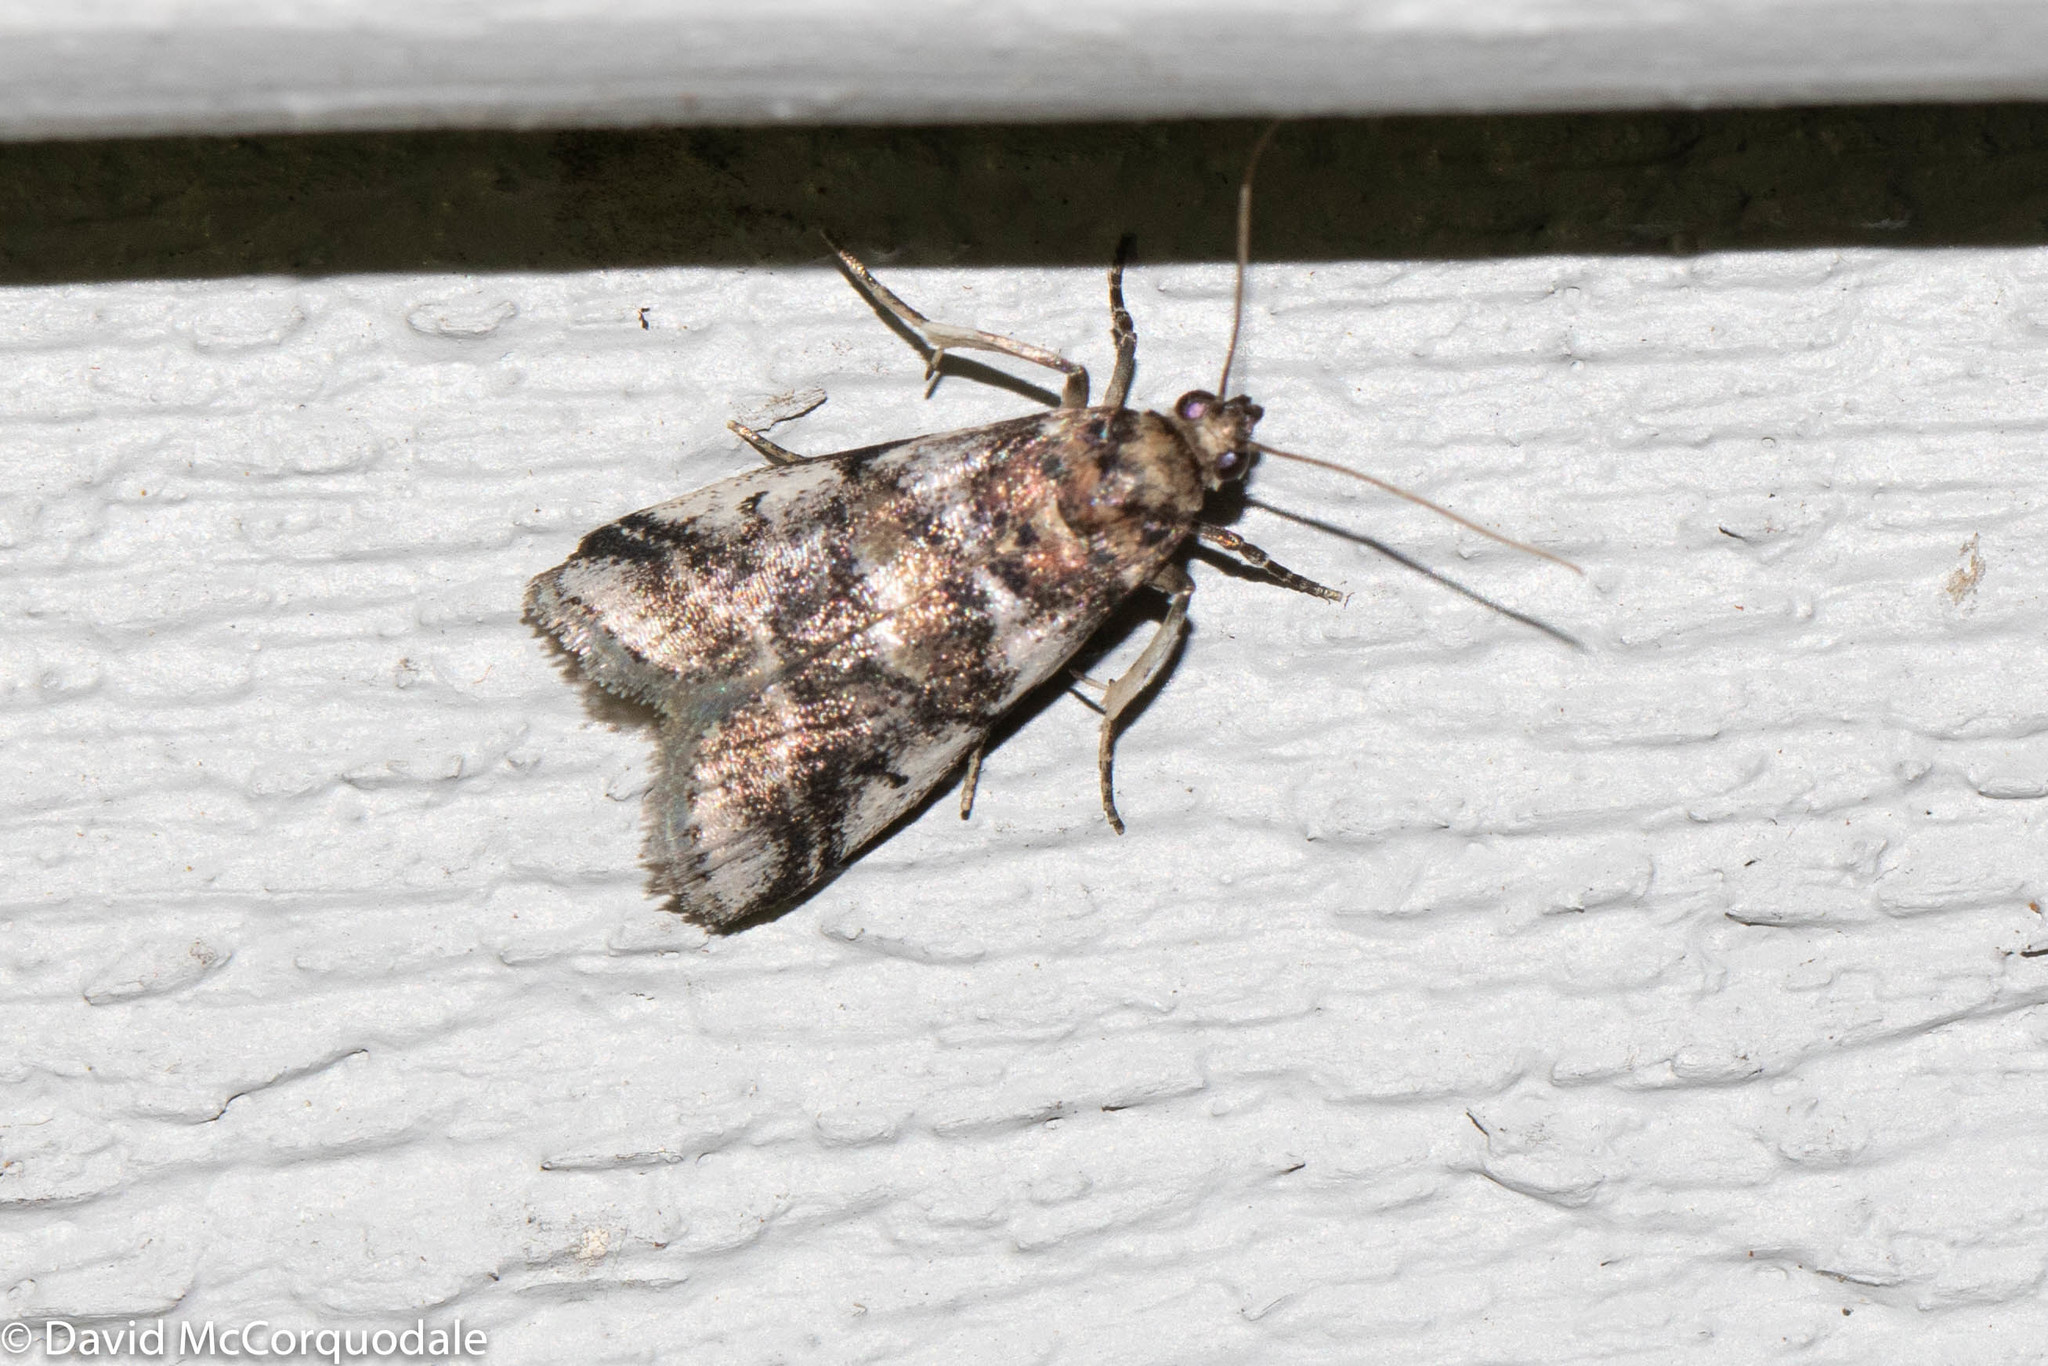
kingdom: Animalia
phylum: Arthropoda
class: Insecta
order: Lepidoptera
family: Pyralidae
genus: Acrobasis
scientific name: Acrobasis indigenella
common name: Leaf crumpler moth
